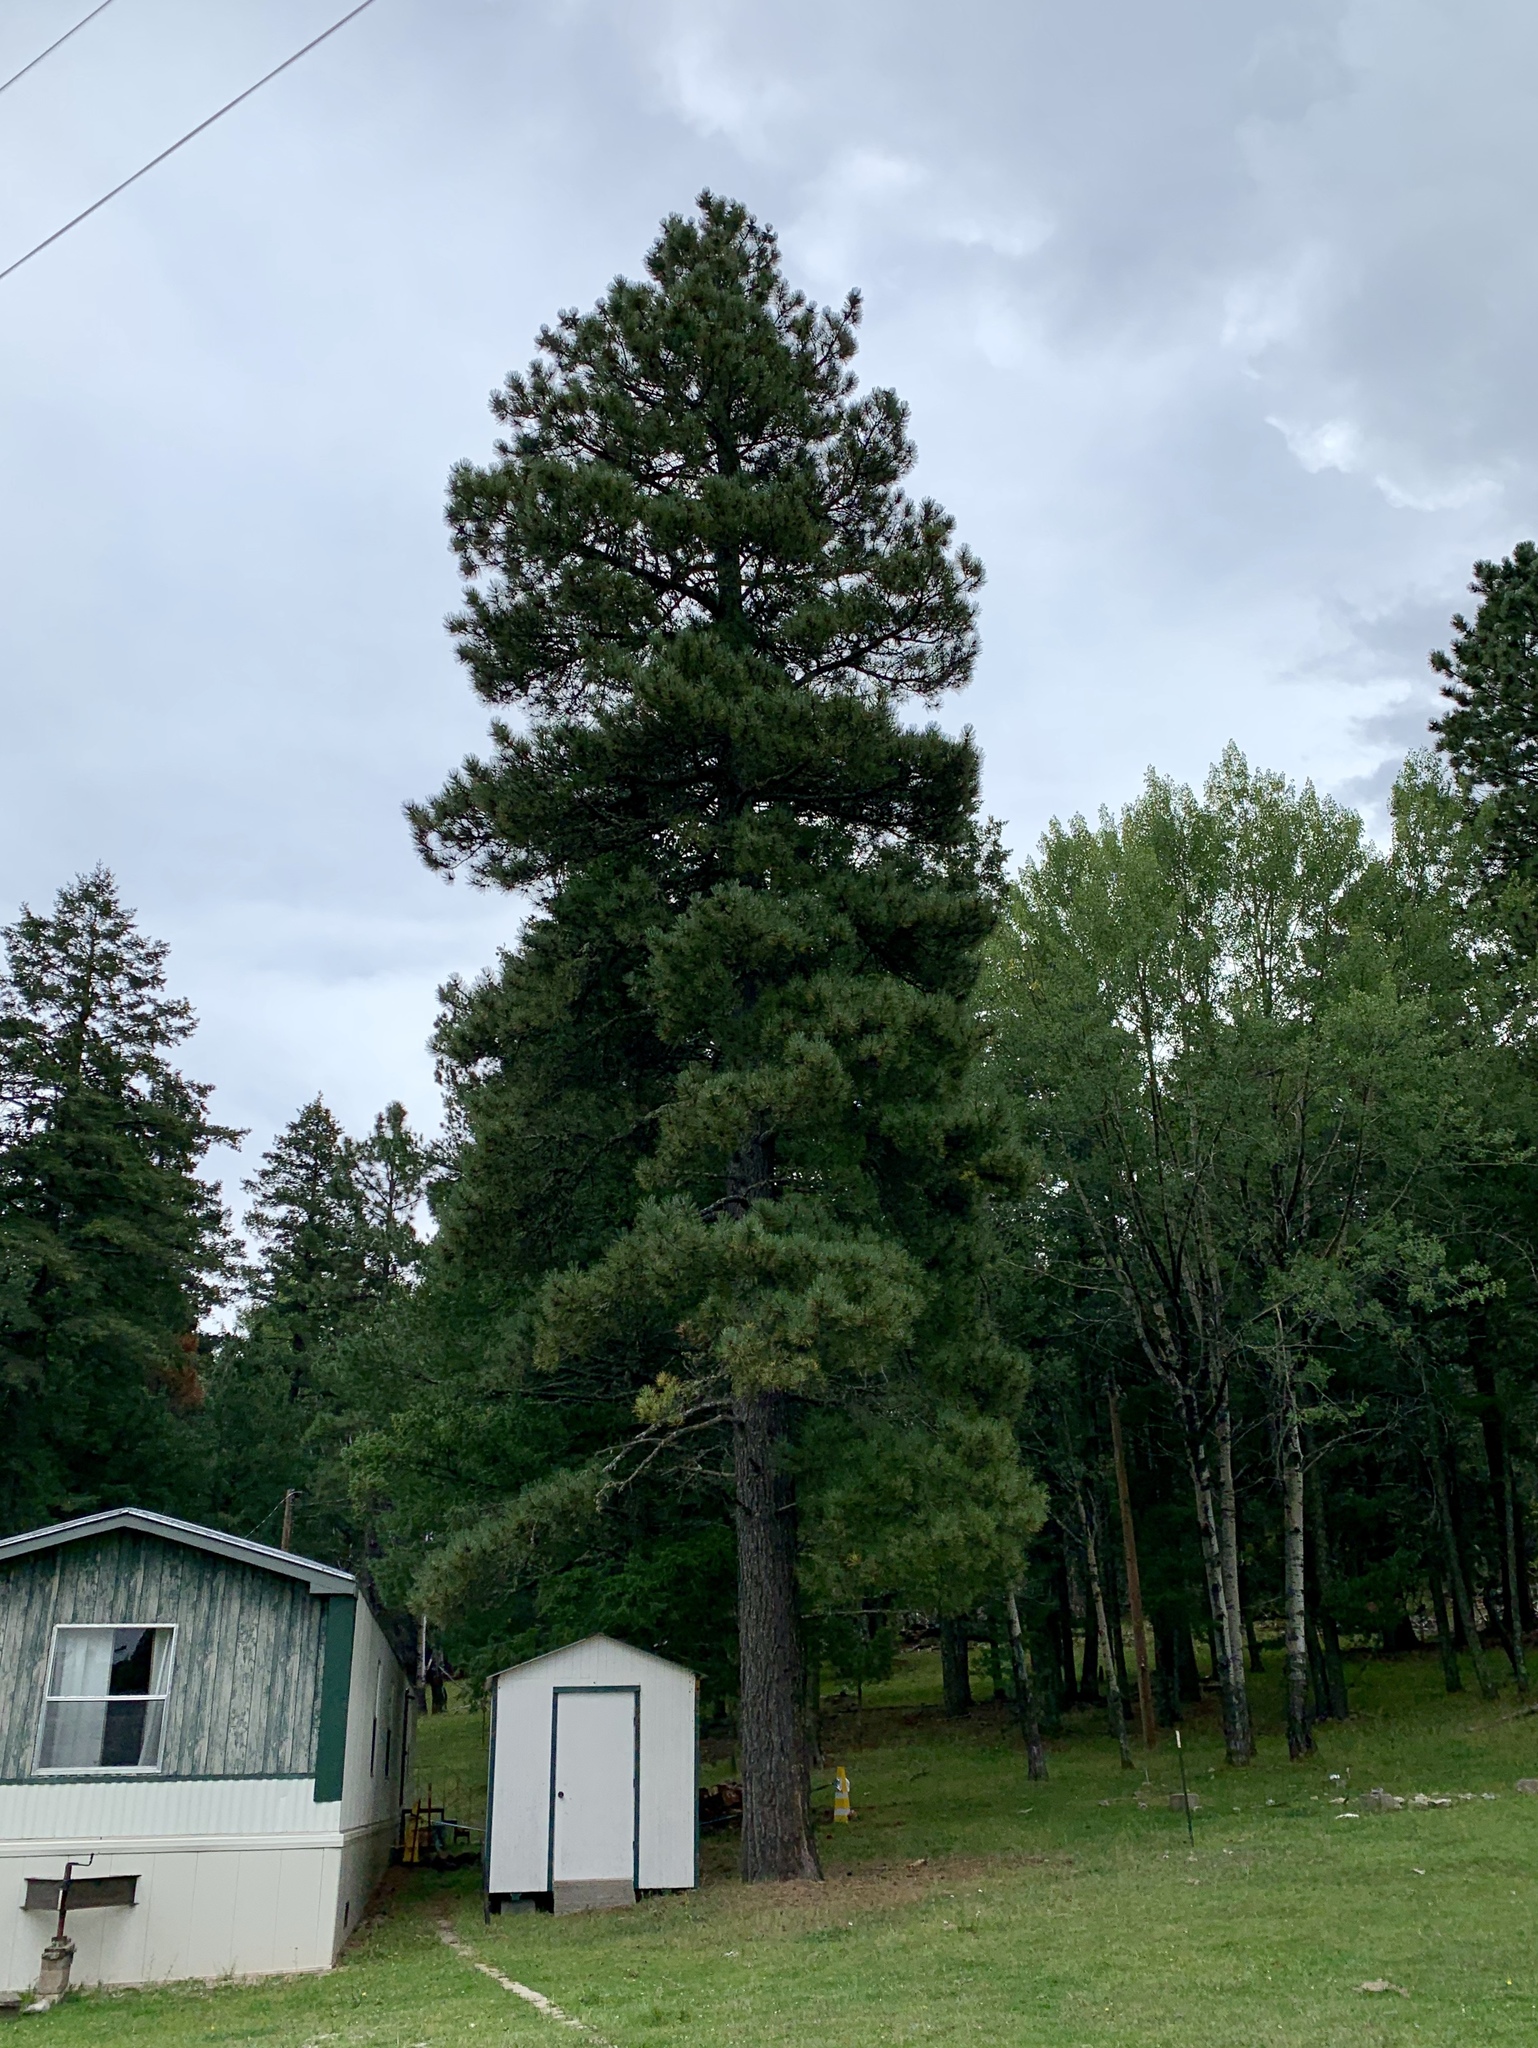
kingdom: Plantae
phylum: Tracheophyta
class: Pinopsida
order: Pinales
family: Pinaceae
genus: Pinus
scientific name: Pinus ponderosa
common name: Western yellow-pine
